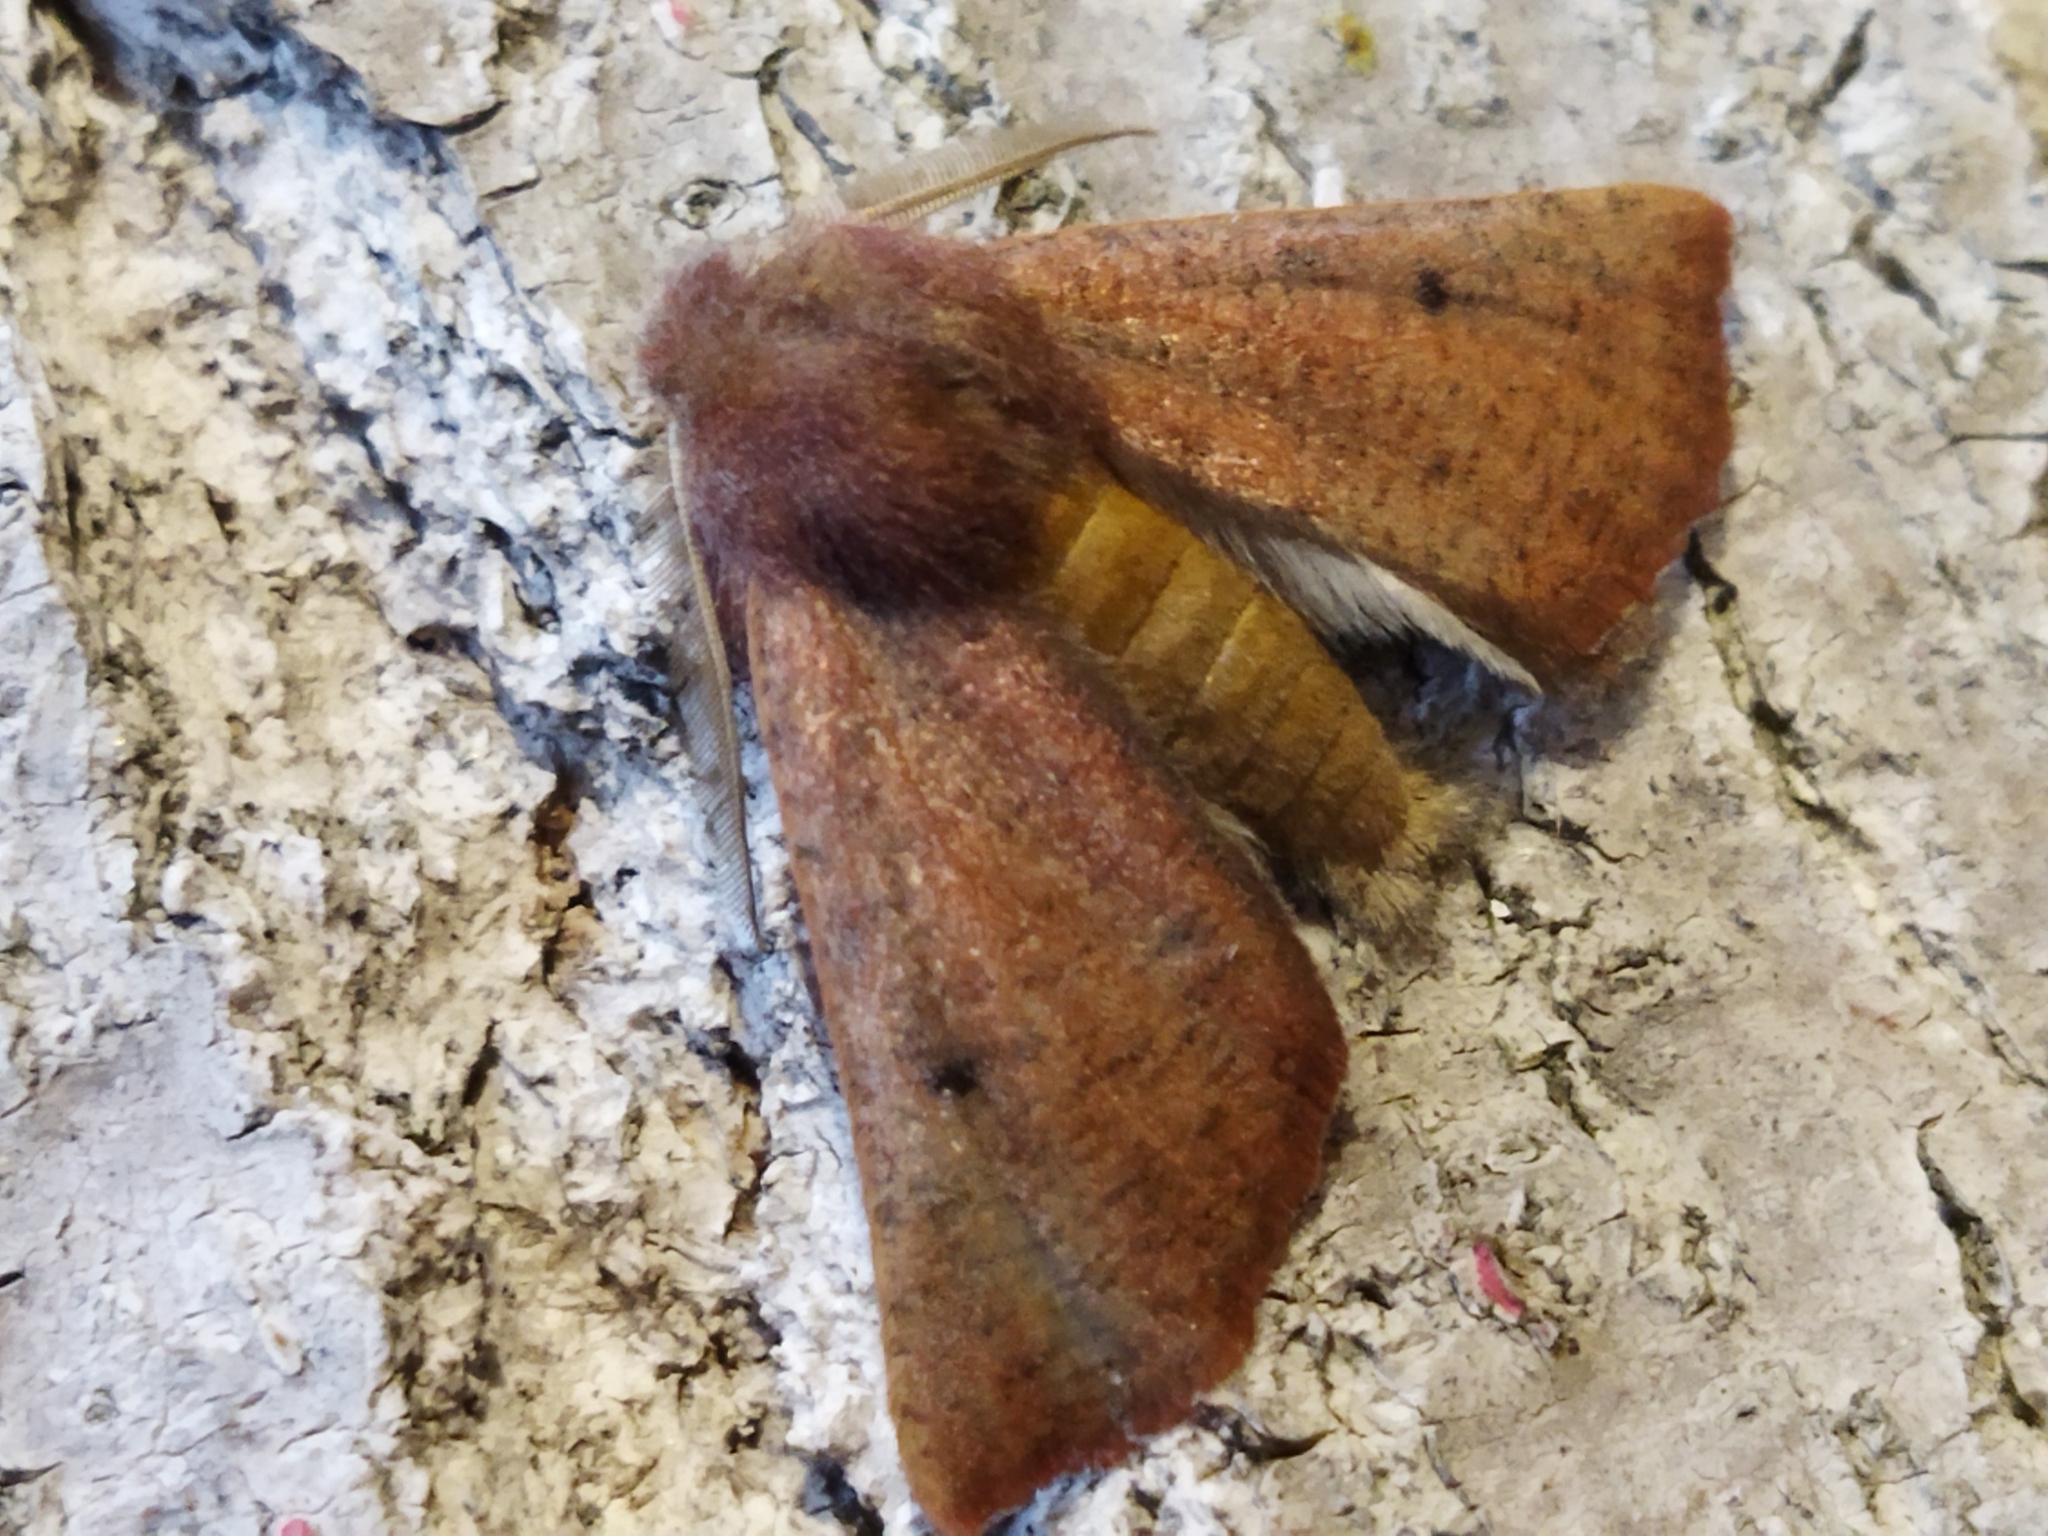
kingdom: Animalia
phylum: Arthropoda
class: Insecta
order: Lepidoptera
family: Geometridae
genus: Dasycorsa
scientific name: Dasycorsa modesta
